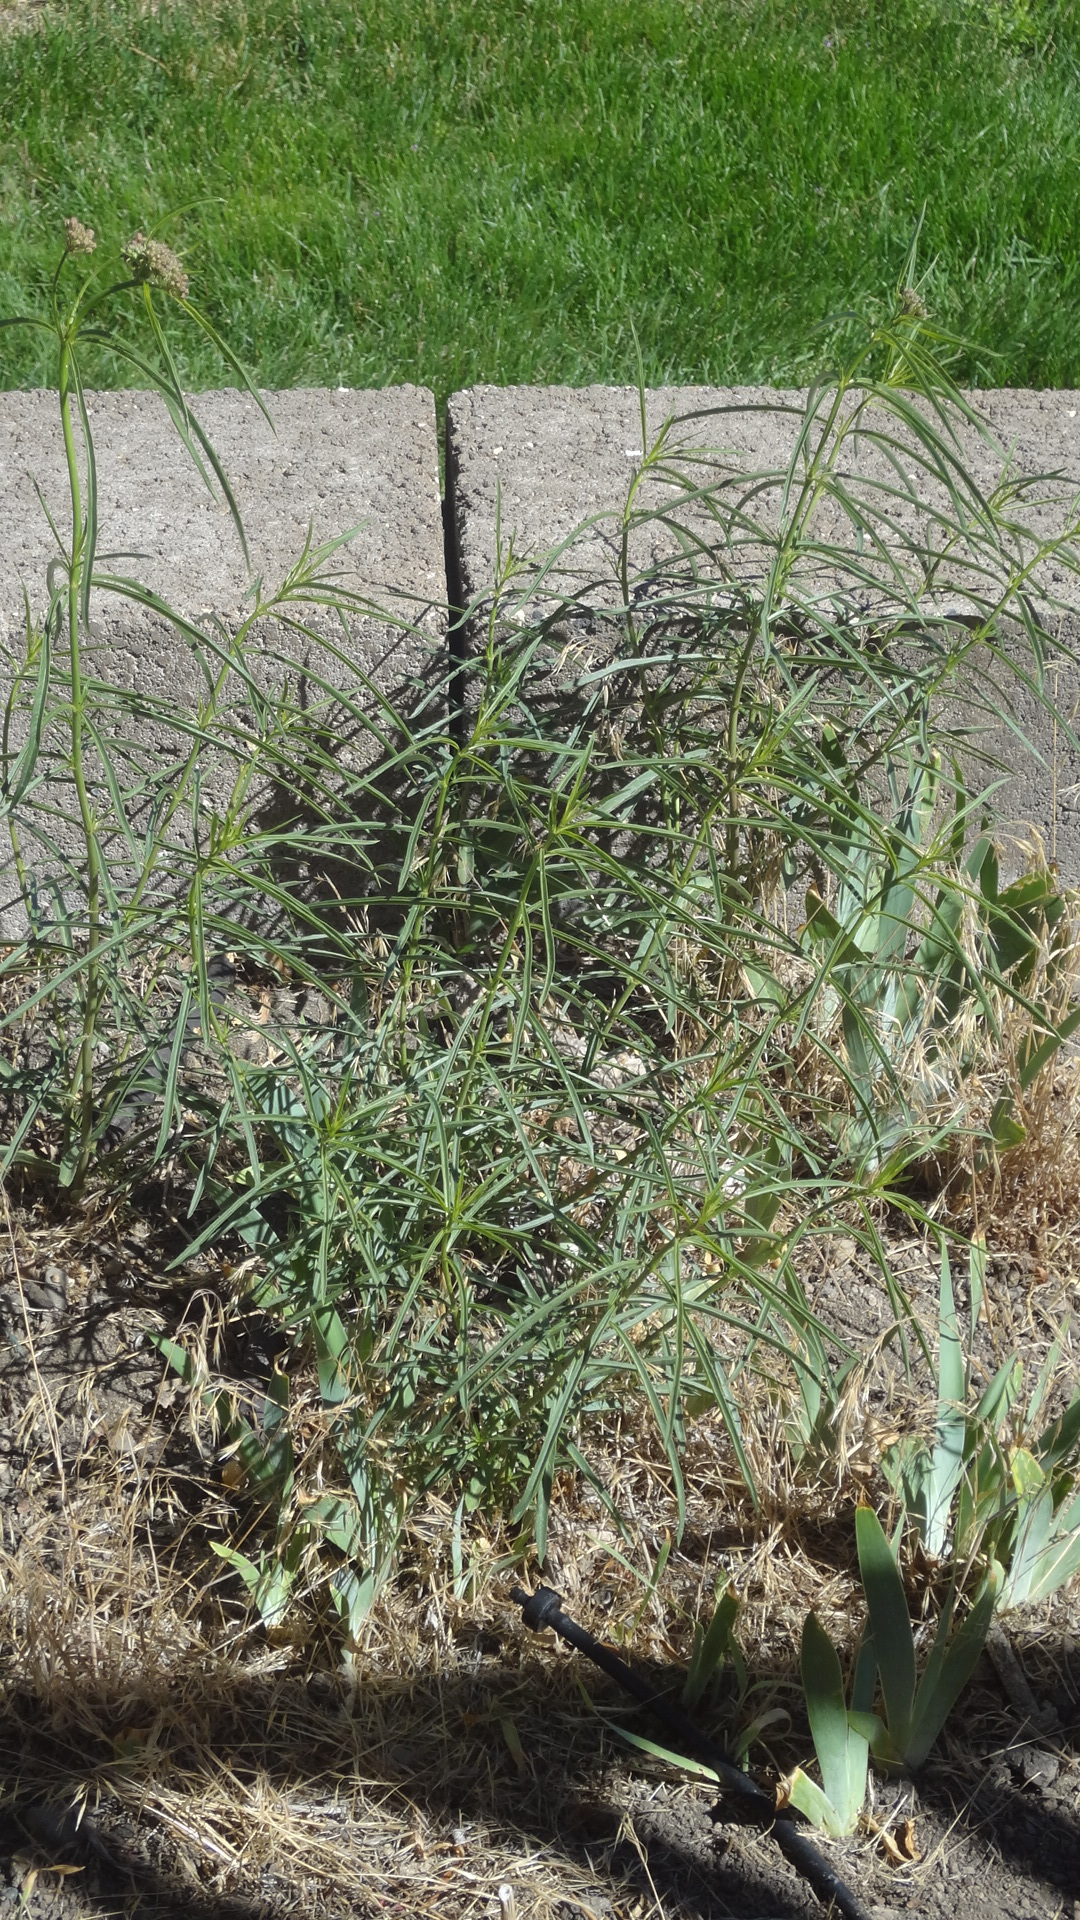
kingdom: Plantae
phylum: Tracheophyta
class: Magnoliopsida
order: Gentianales
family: Apocynaceae
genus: Asclepias
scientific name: Asclepias fascicularis
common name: Mexican milkweed
